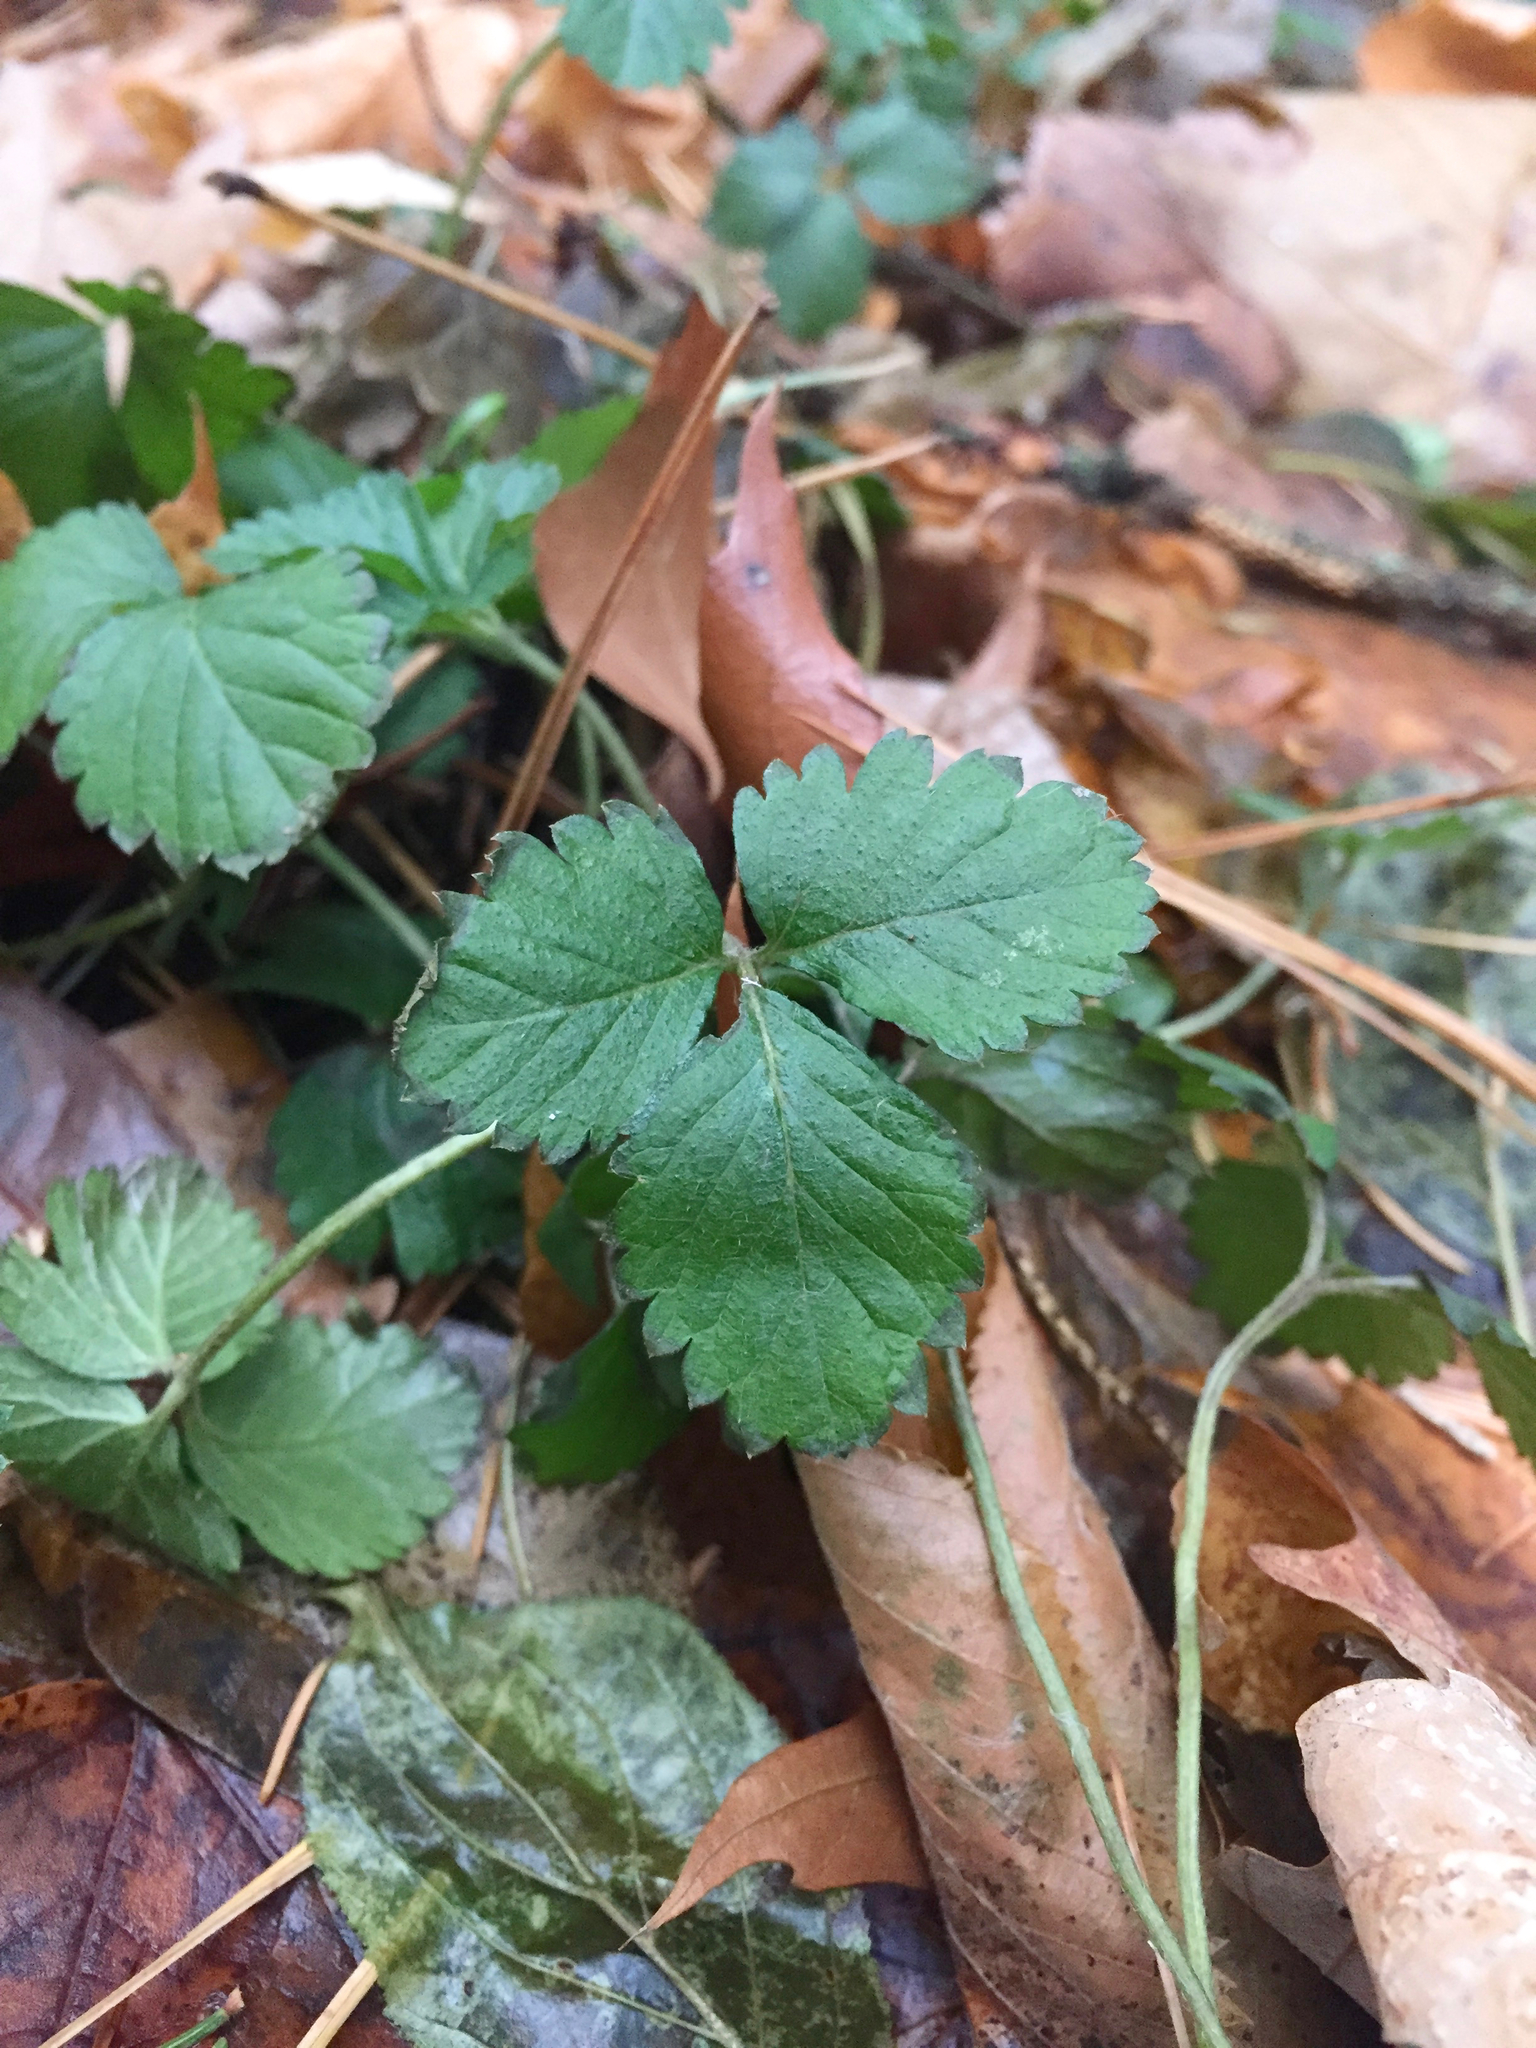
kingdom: Plantae
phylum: Tracheophyta
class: Magnoliopsida
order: Rosales
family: Rosaceae
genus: Potentilla
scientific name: Potentilla indica
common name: Yellow-flowered strawberry
